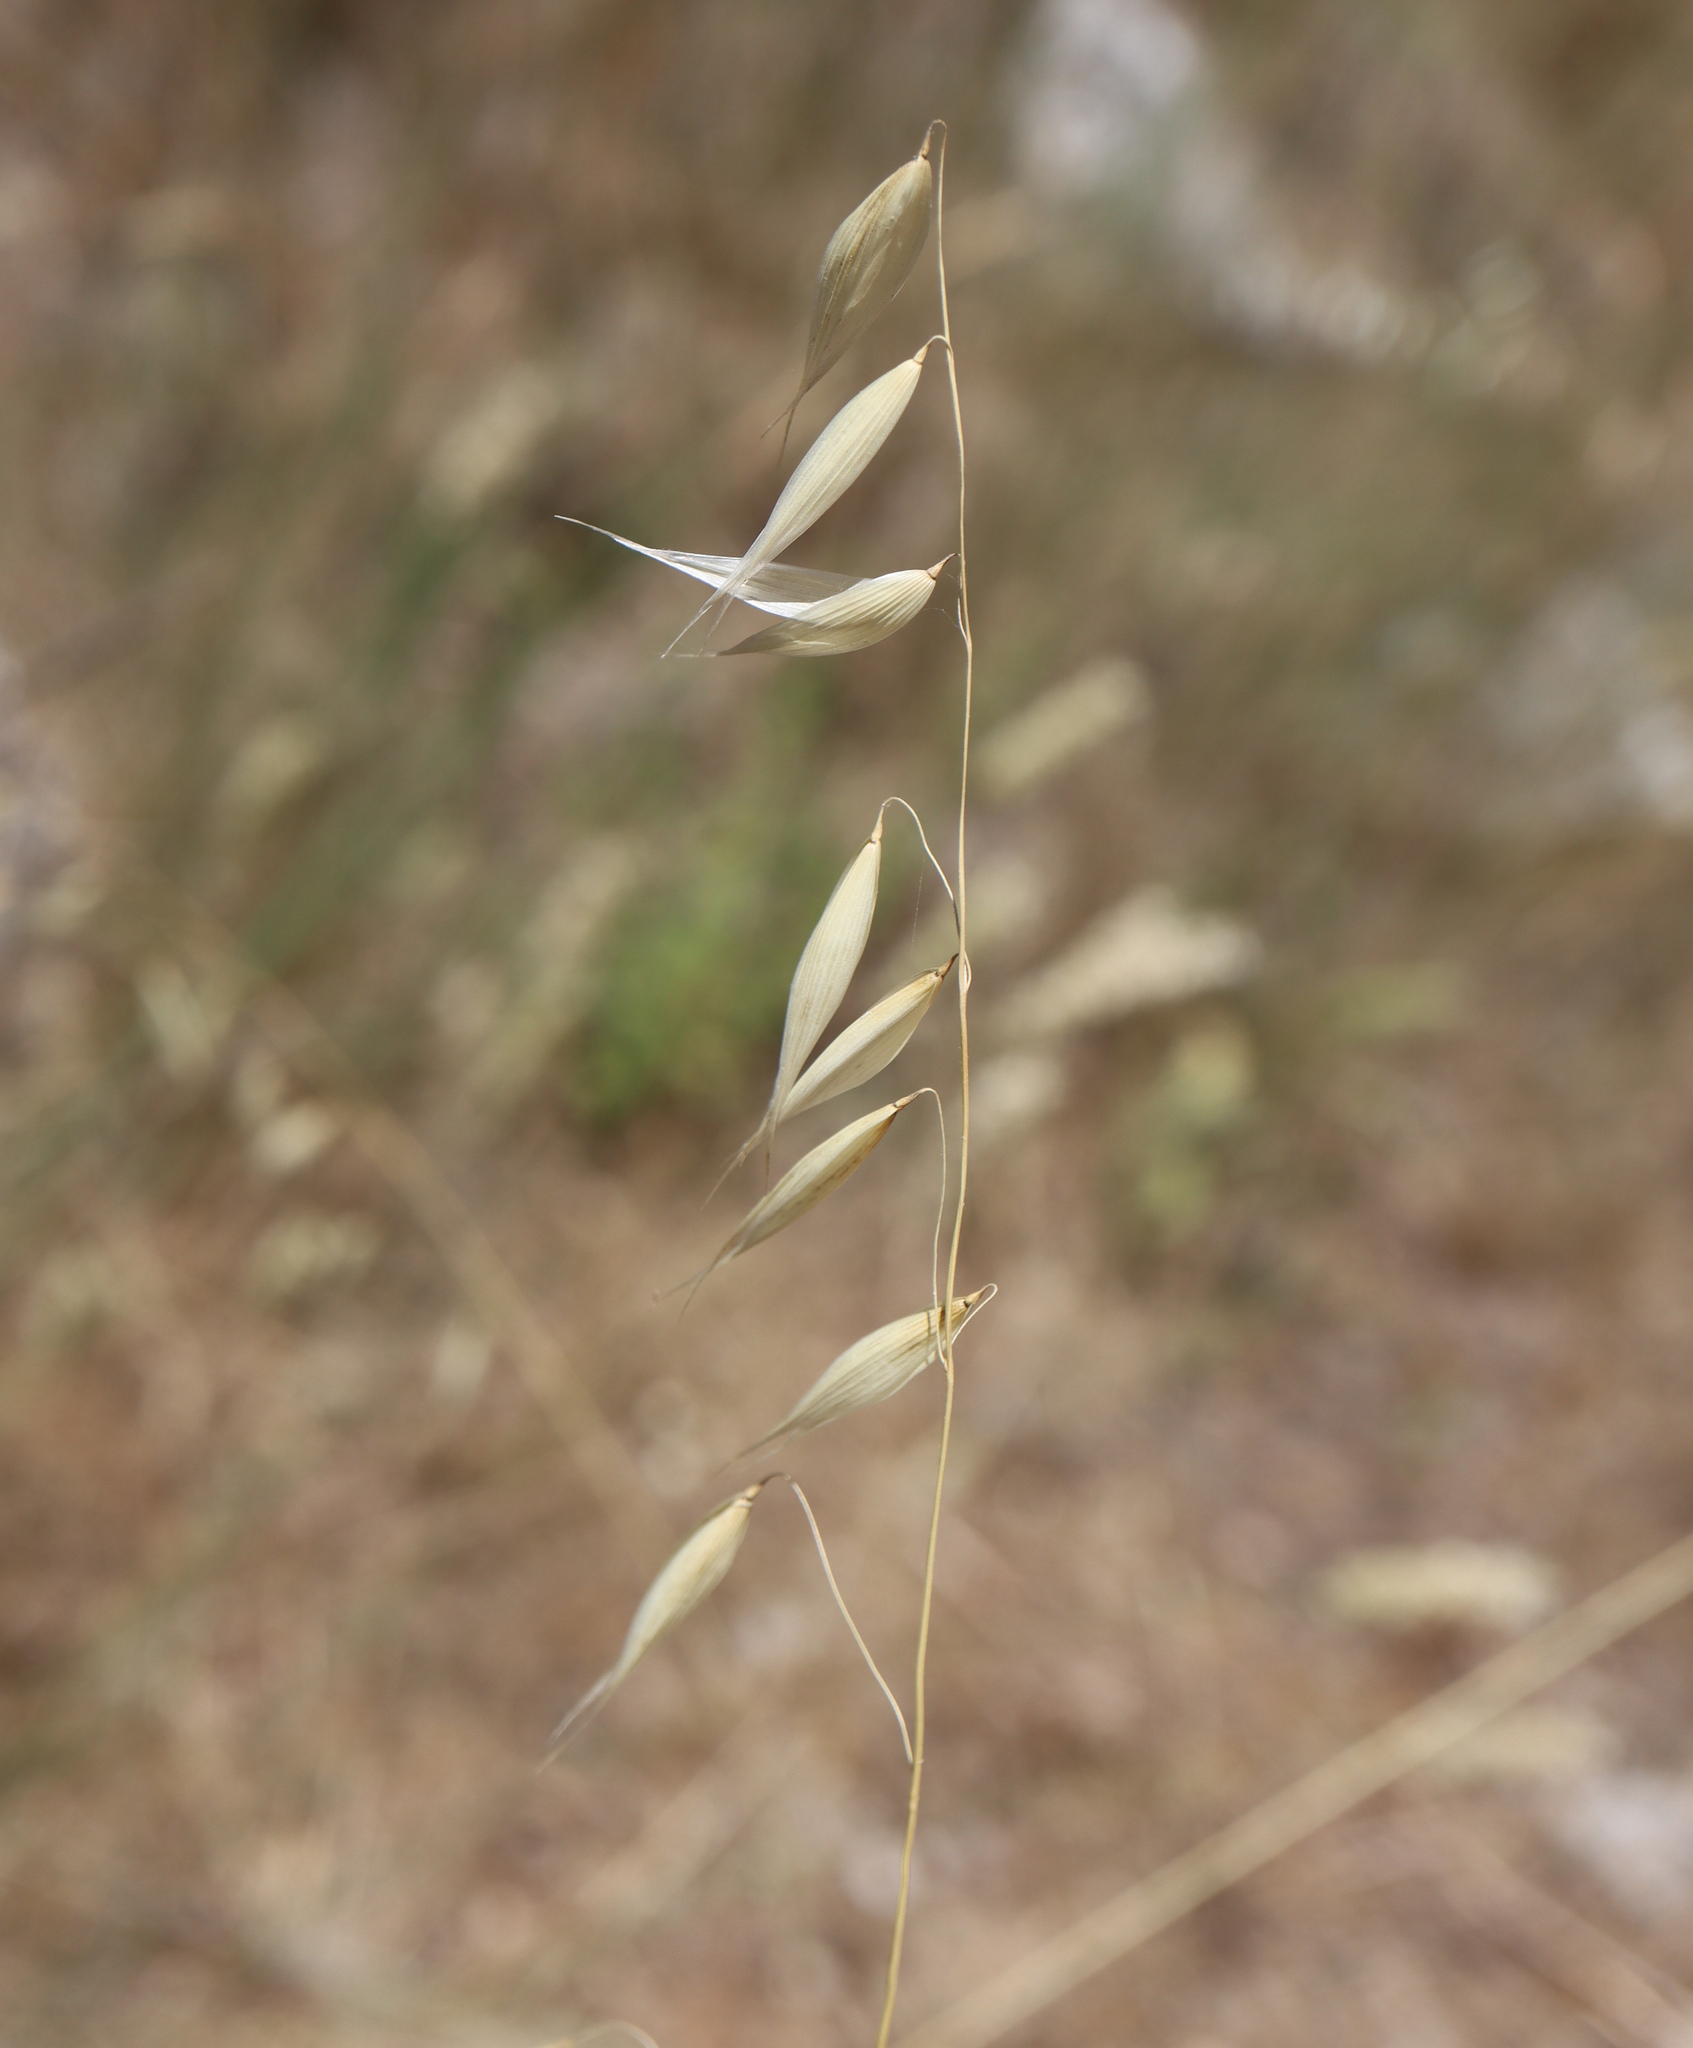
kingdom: Plantae
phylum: Tracheophyta
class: Liliopsida
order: Poales
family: Poaceae
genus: Avena
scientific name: Avena
